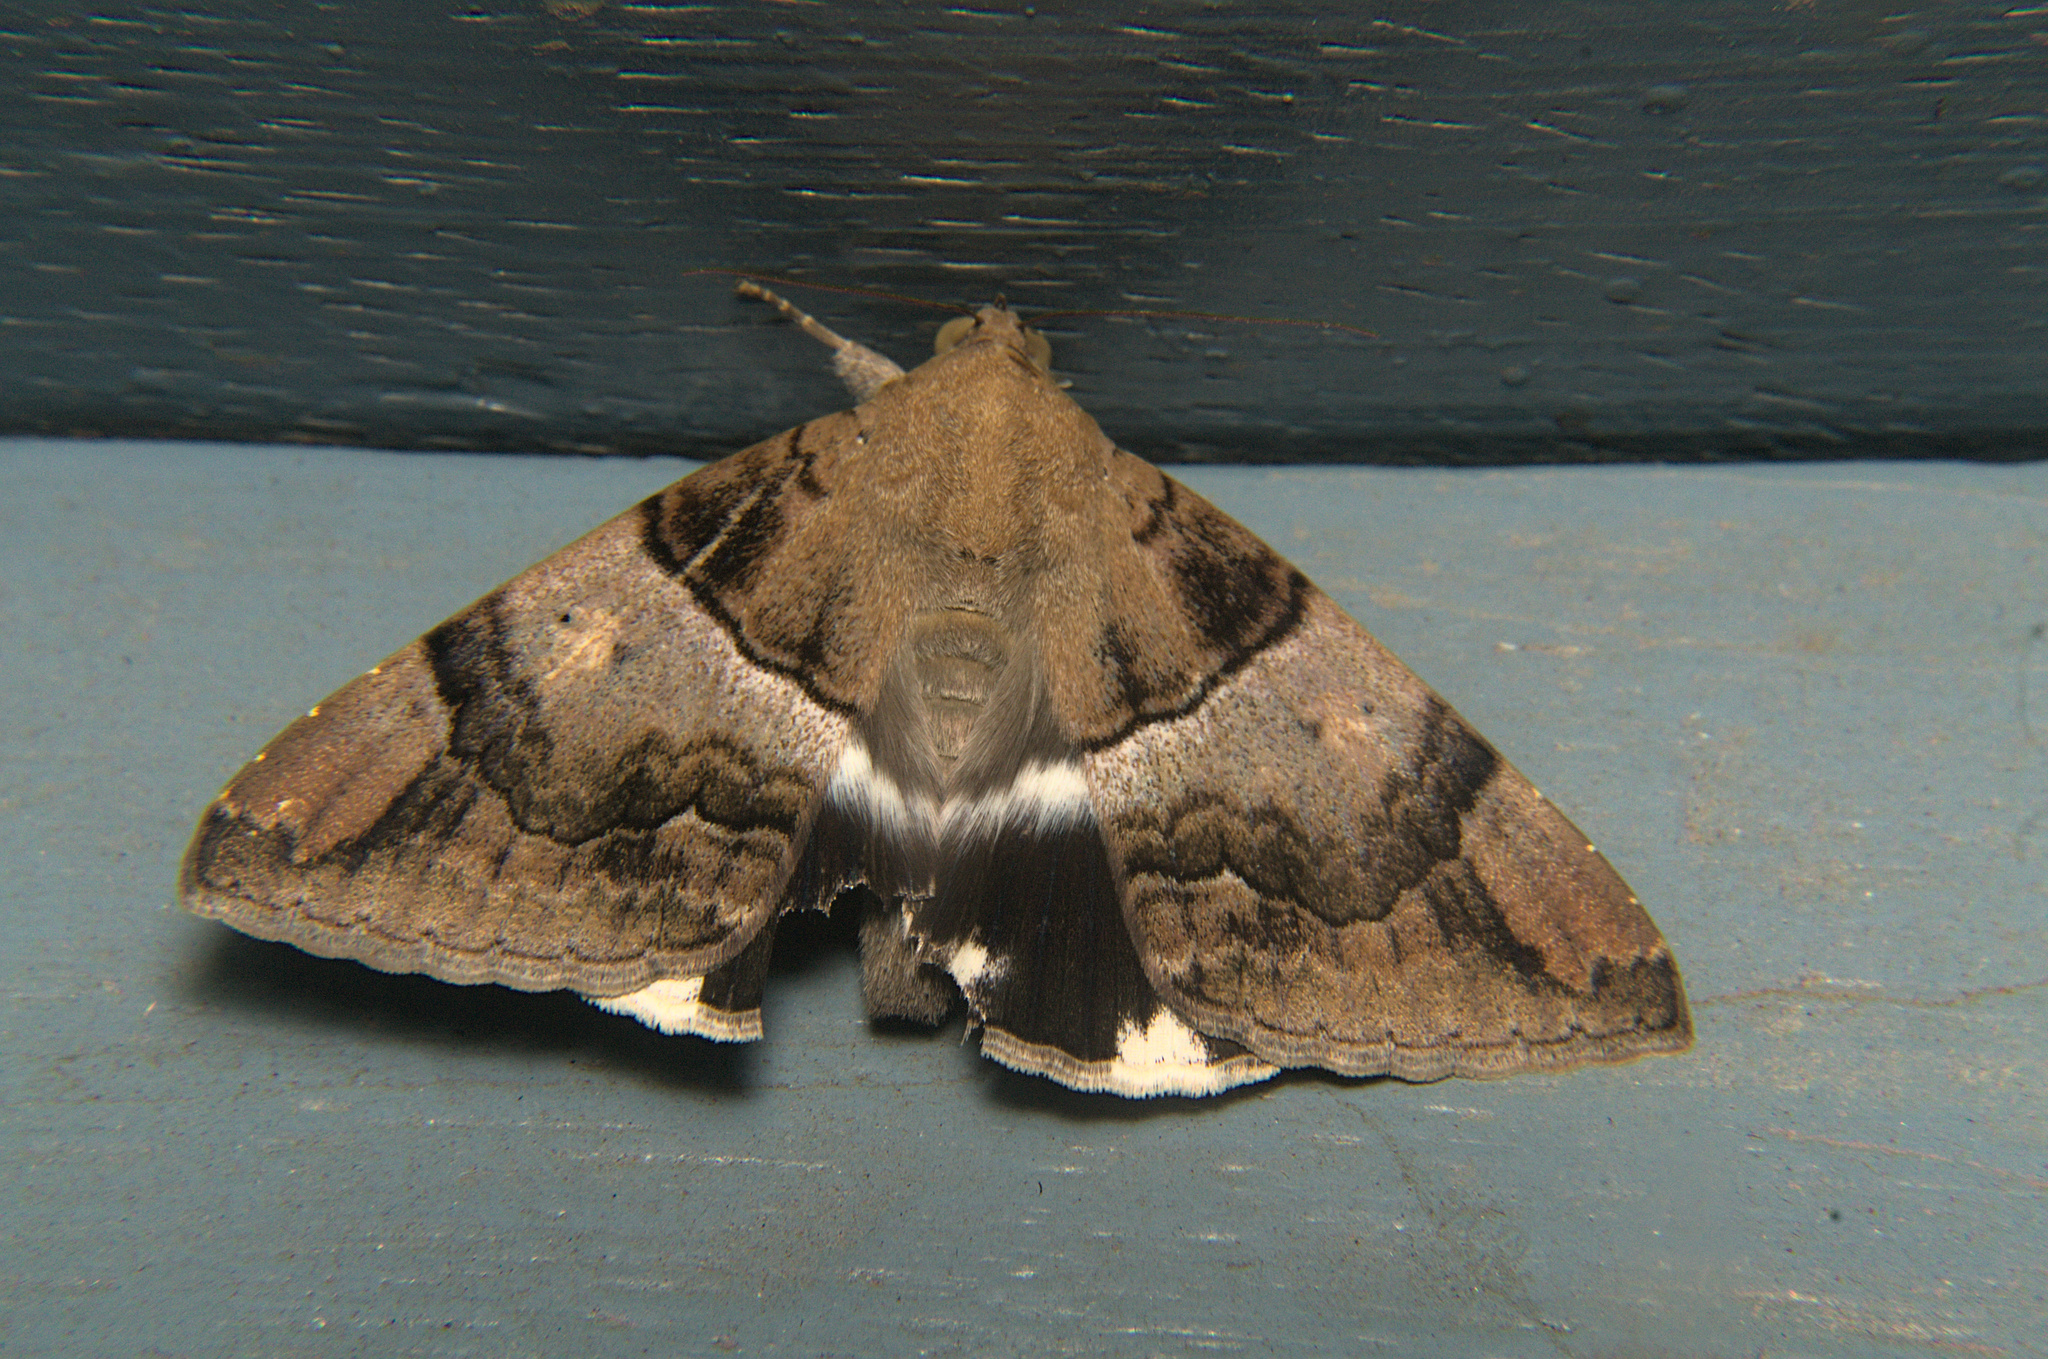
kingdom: Animalia
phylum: Arthropoda
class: Insecta
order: Lepidoptera
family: Erebidae
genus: Achaea
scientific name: Achaea janata
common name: Croton caterpillar
